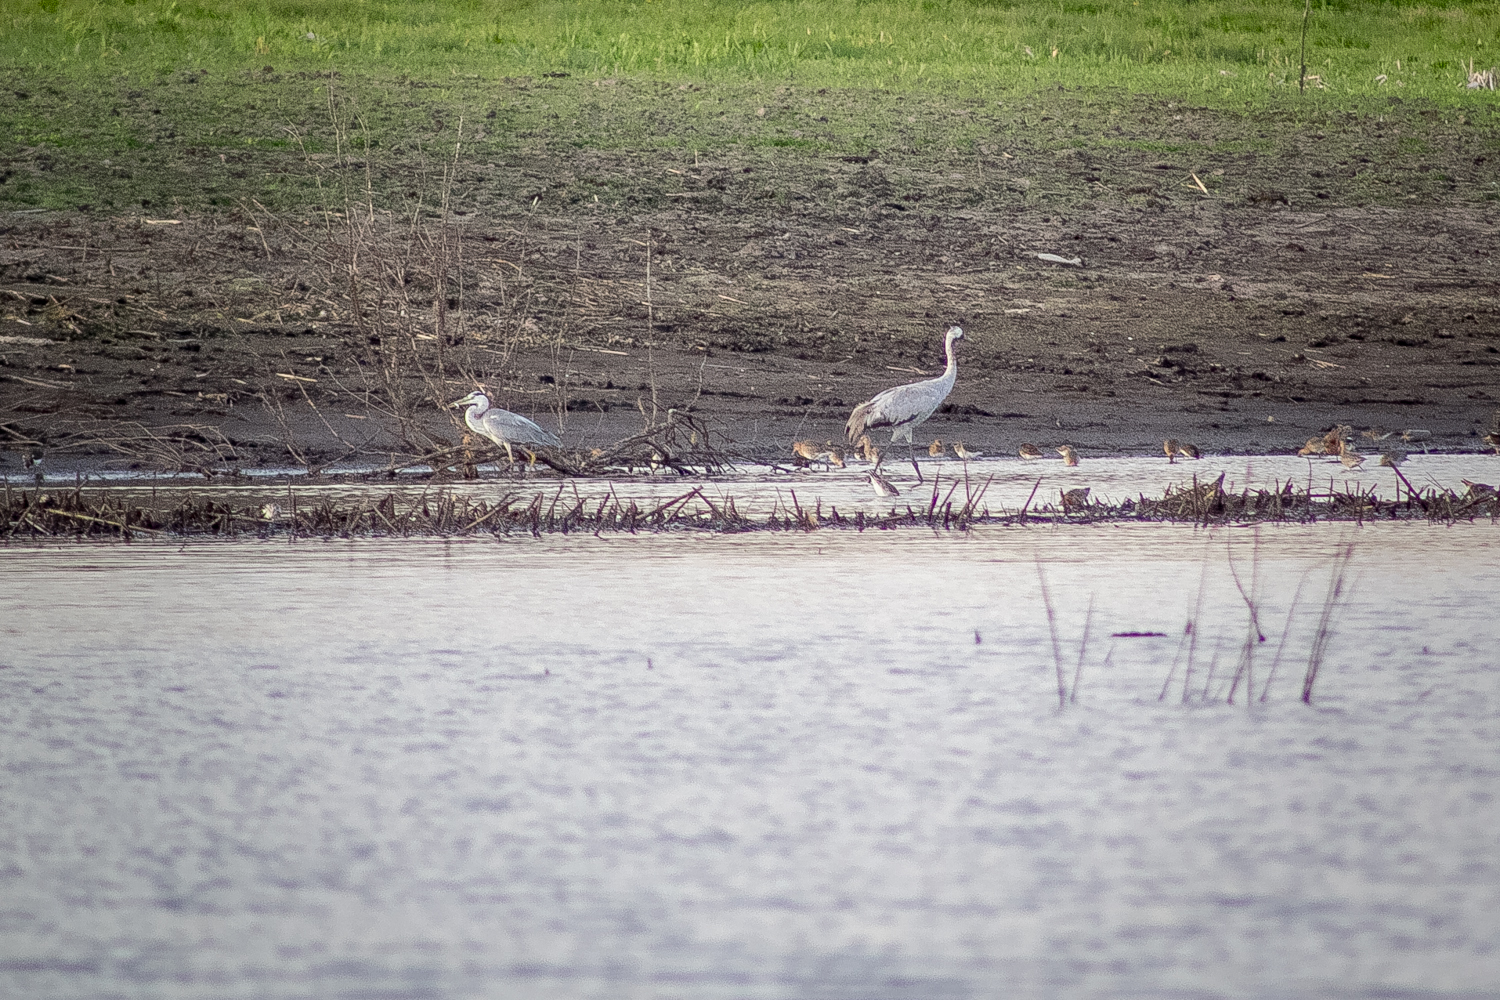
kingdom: Animalia
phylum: Chordata
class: Aves
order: Gruiformes
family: Gruidae
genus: Grus
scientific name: Grus grus
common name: Common crane
